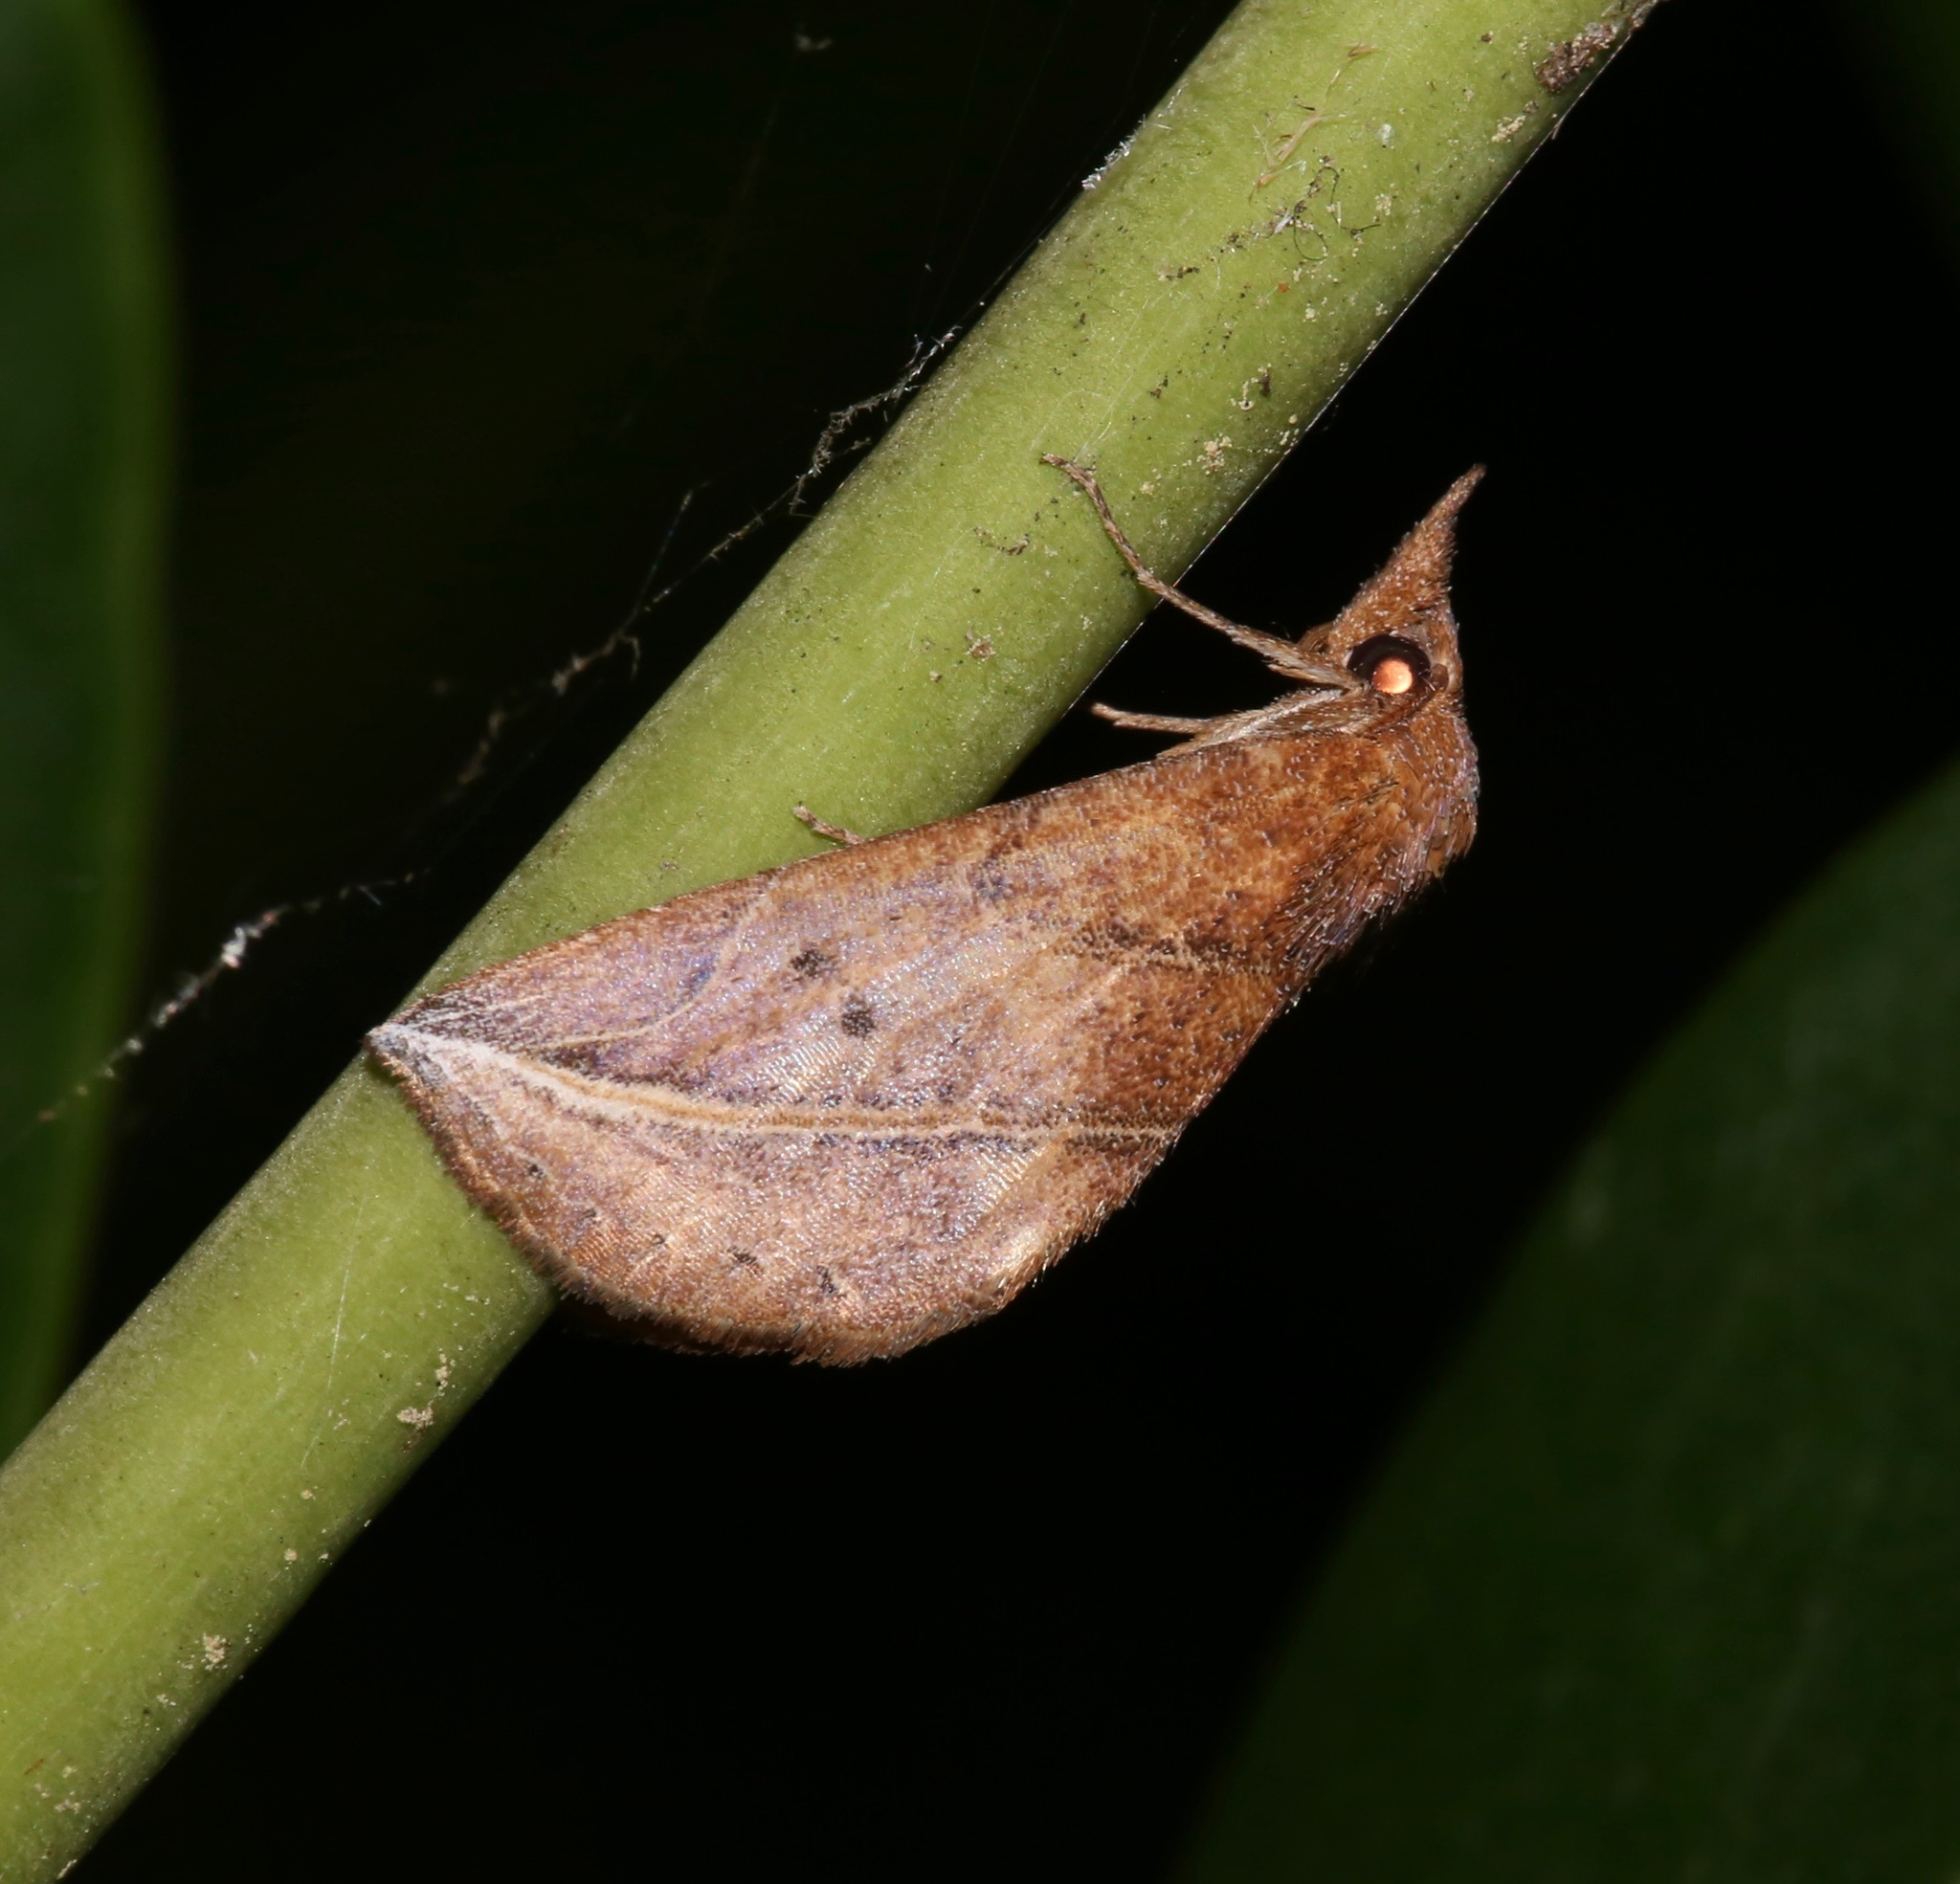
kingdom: Animalia
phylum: Arthropoda
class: Insecta
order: Lepidoptera
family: Erebidae
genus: Phyprosopus
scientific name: Phyprosopus callitrichoides
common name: Curved-lined owlet
